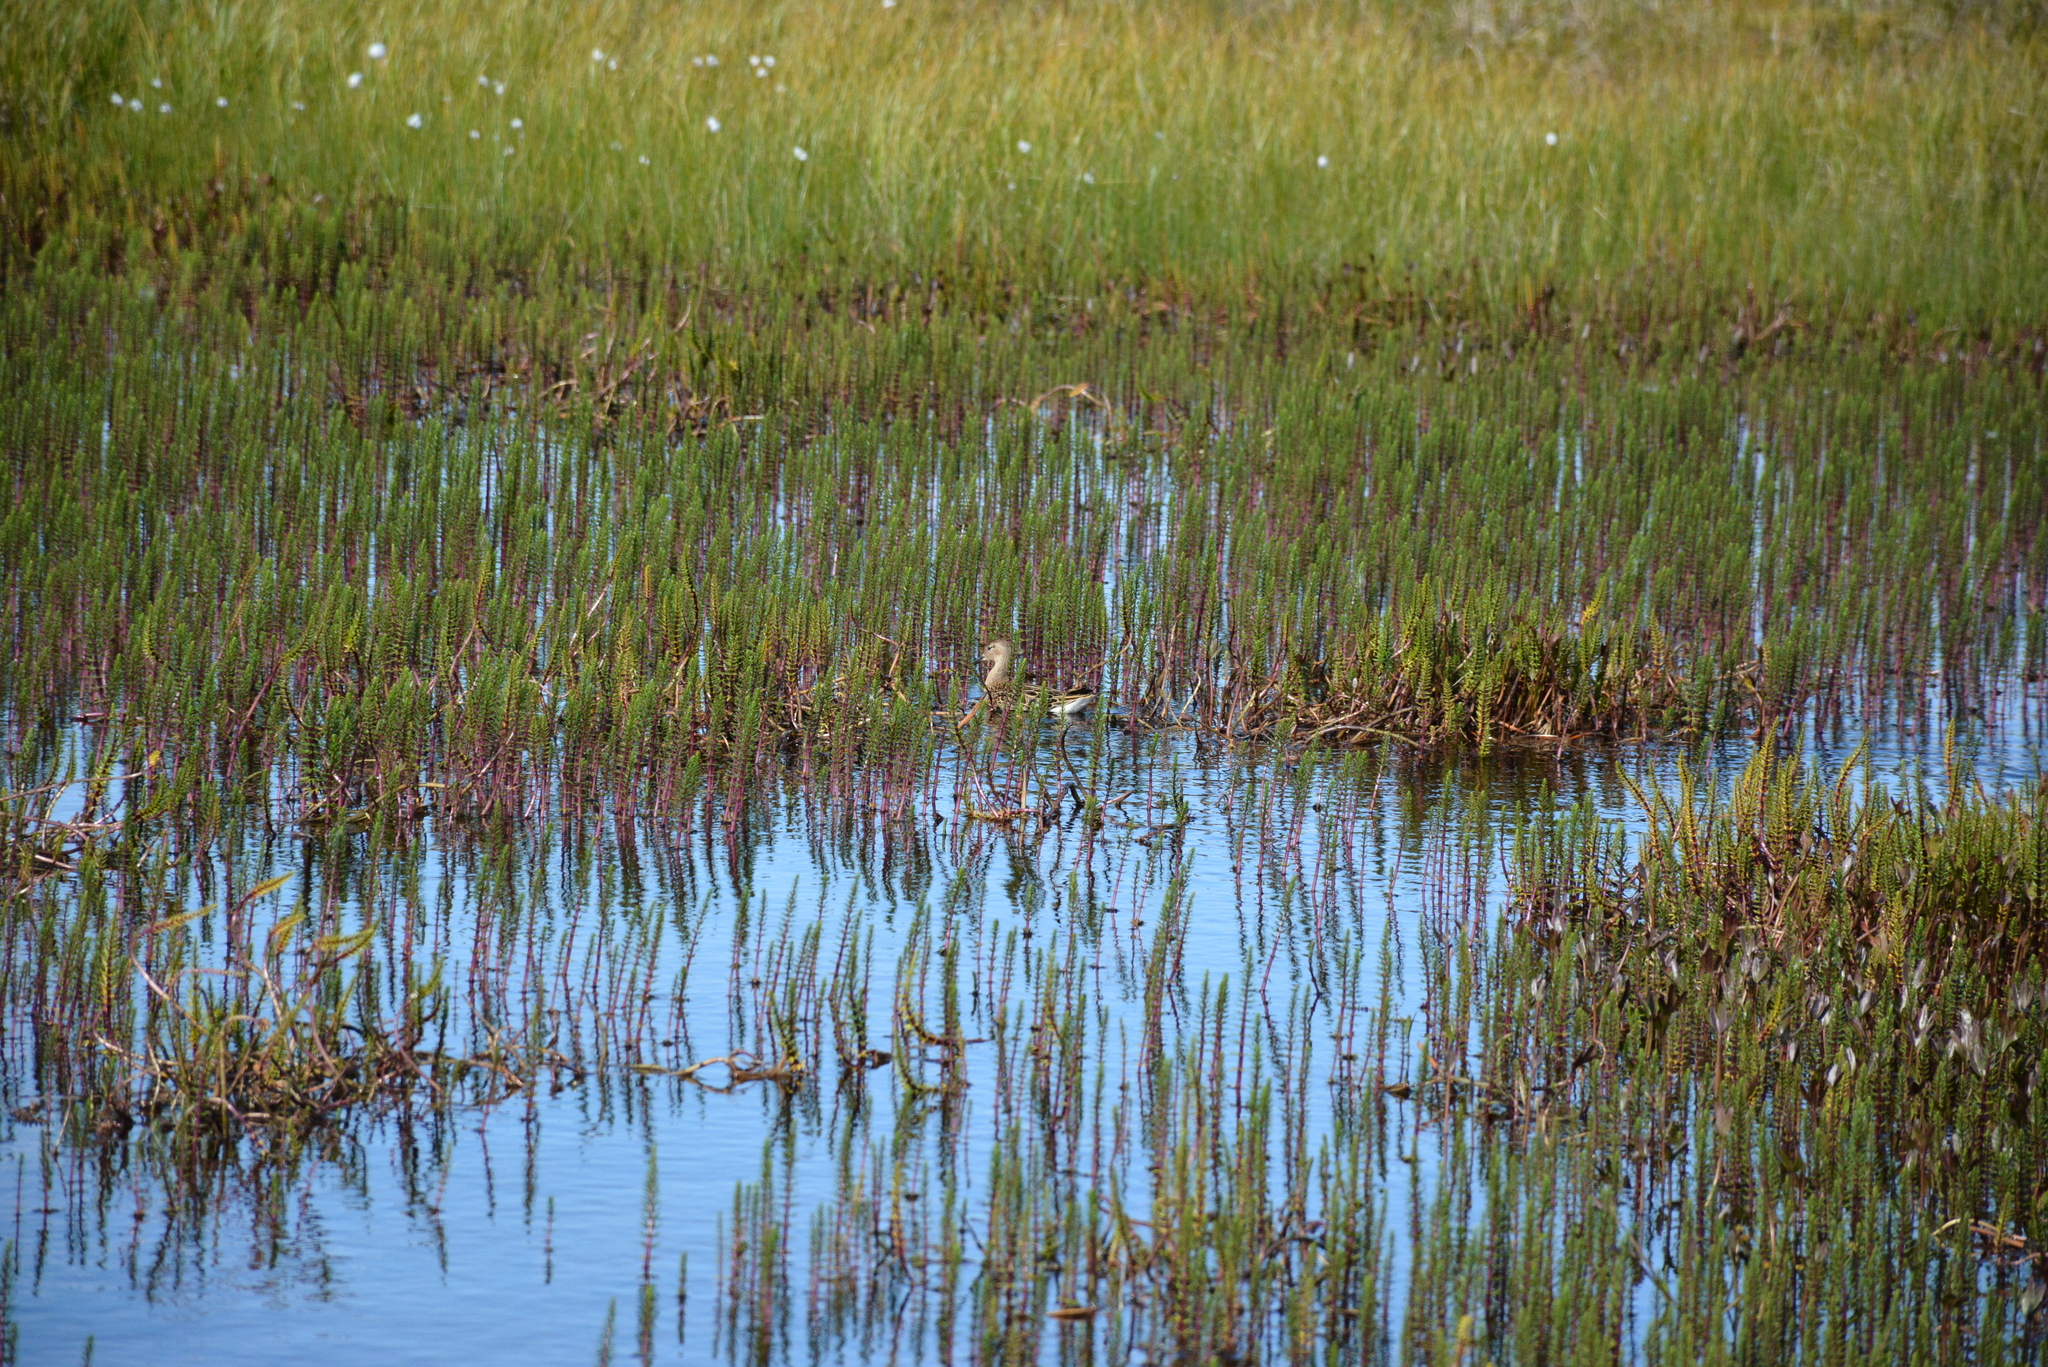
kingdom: Animalia
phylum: Chordata
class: Aves
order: Charadriiformes
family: Scolopacidae
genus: Calidris
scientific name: Calidris pugnax
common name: Ruff
